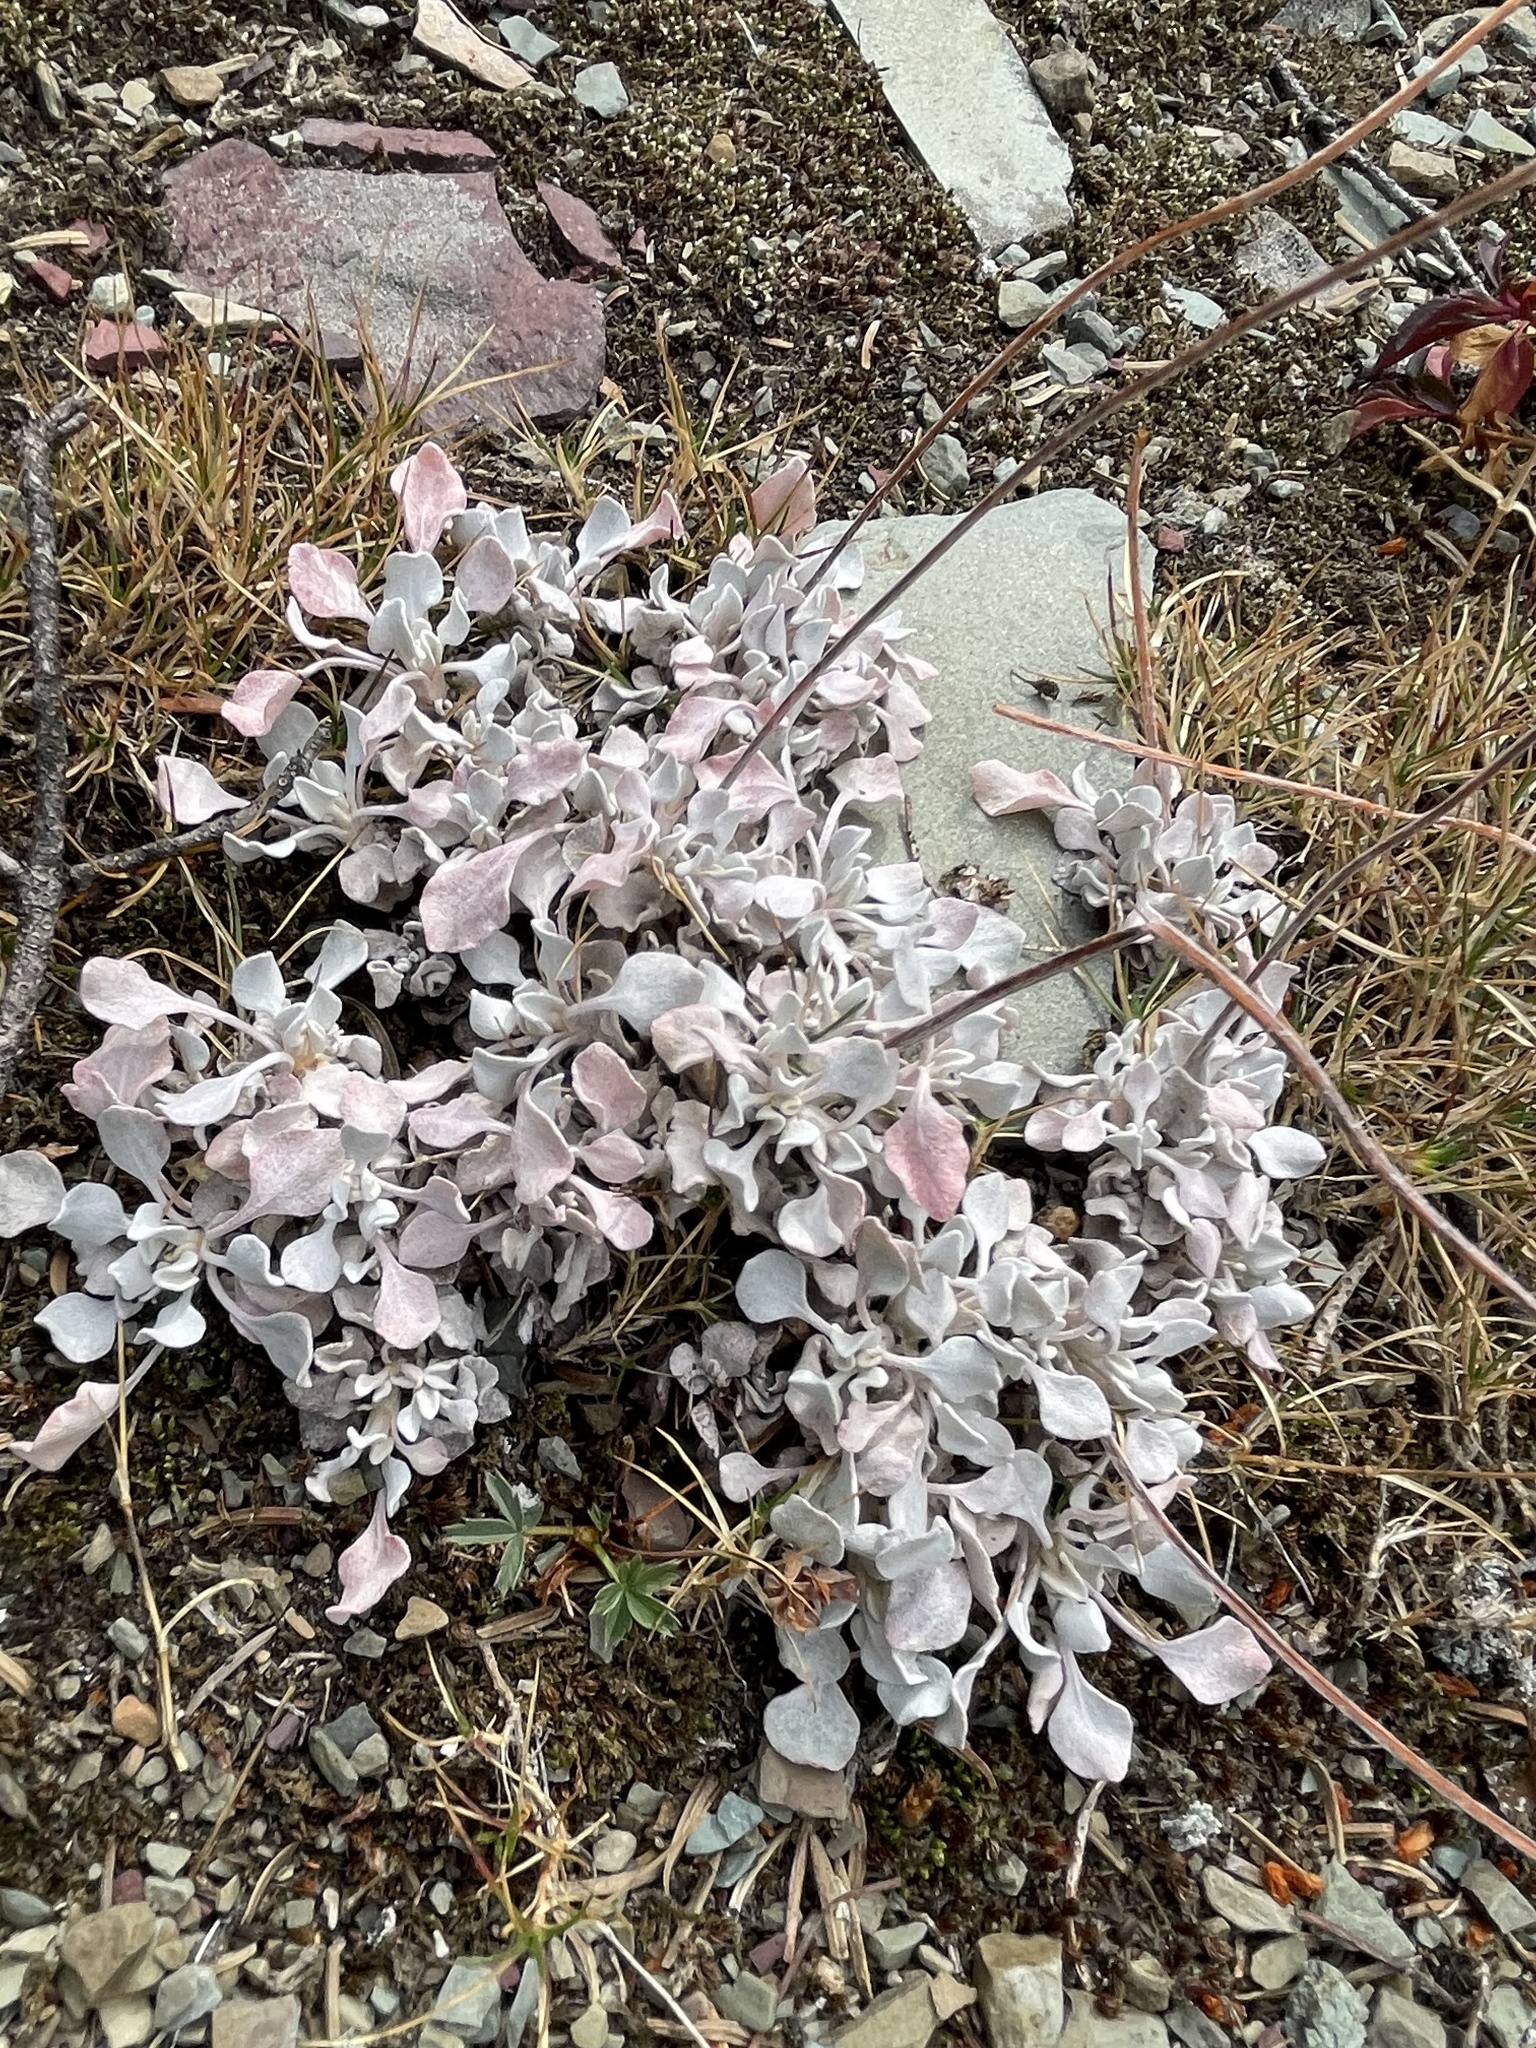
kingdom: Plantae
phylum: Tracheophyta
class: Magnoliopsida
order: Caryophyllales
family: Polygonaceae
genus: Eriogonum
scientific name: Eriogonum ovalifolium
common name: Cushion buckwheat
